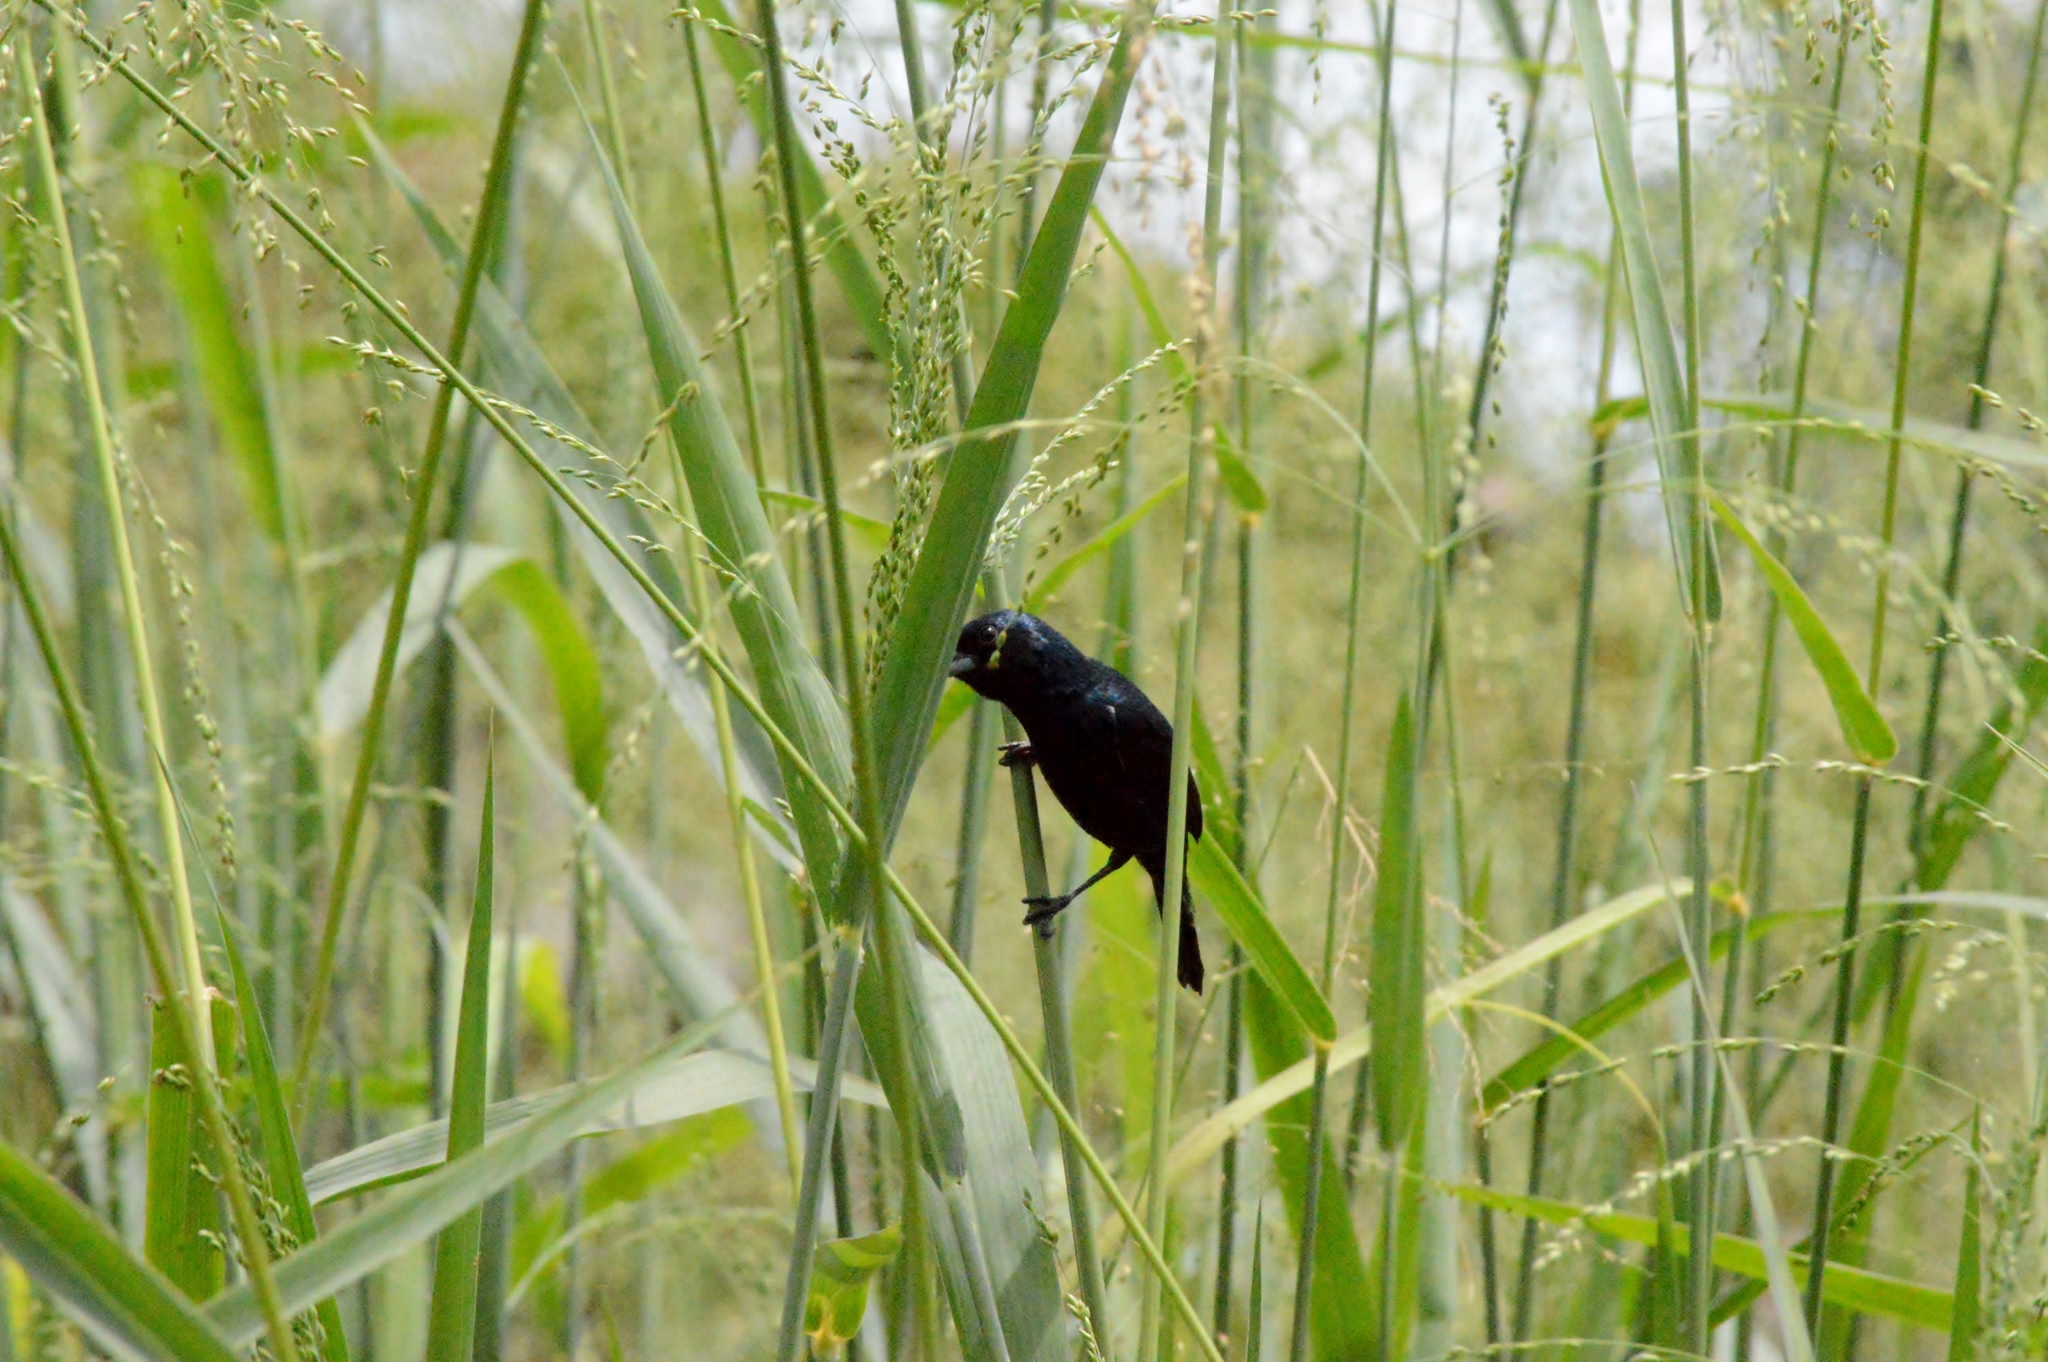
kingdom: Animalia
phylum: Chordata
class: Aves
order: Passeriformes
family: Thraupidae
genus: Volatinia
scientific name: Volatinia jacarina
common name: Blue-black grassquit
